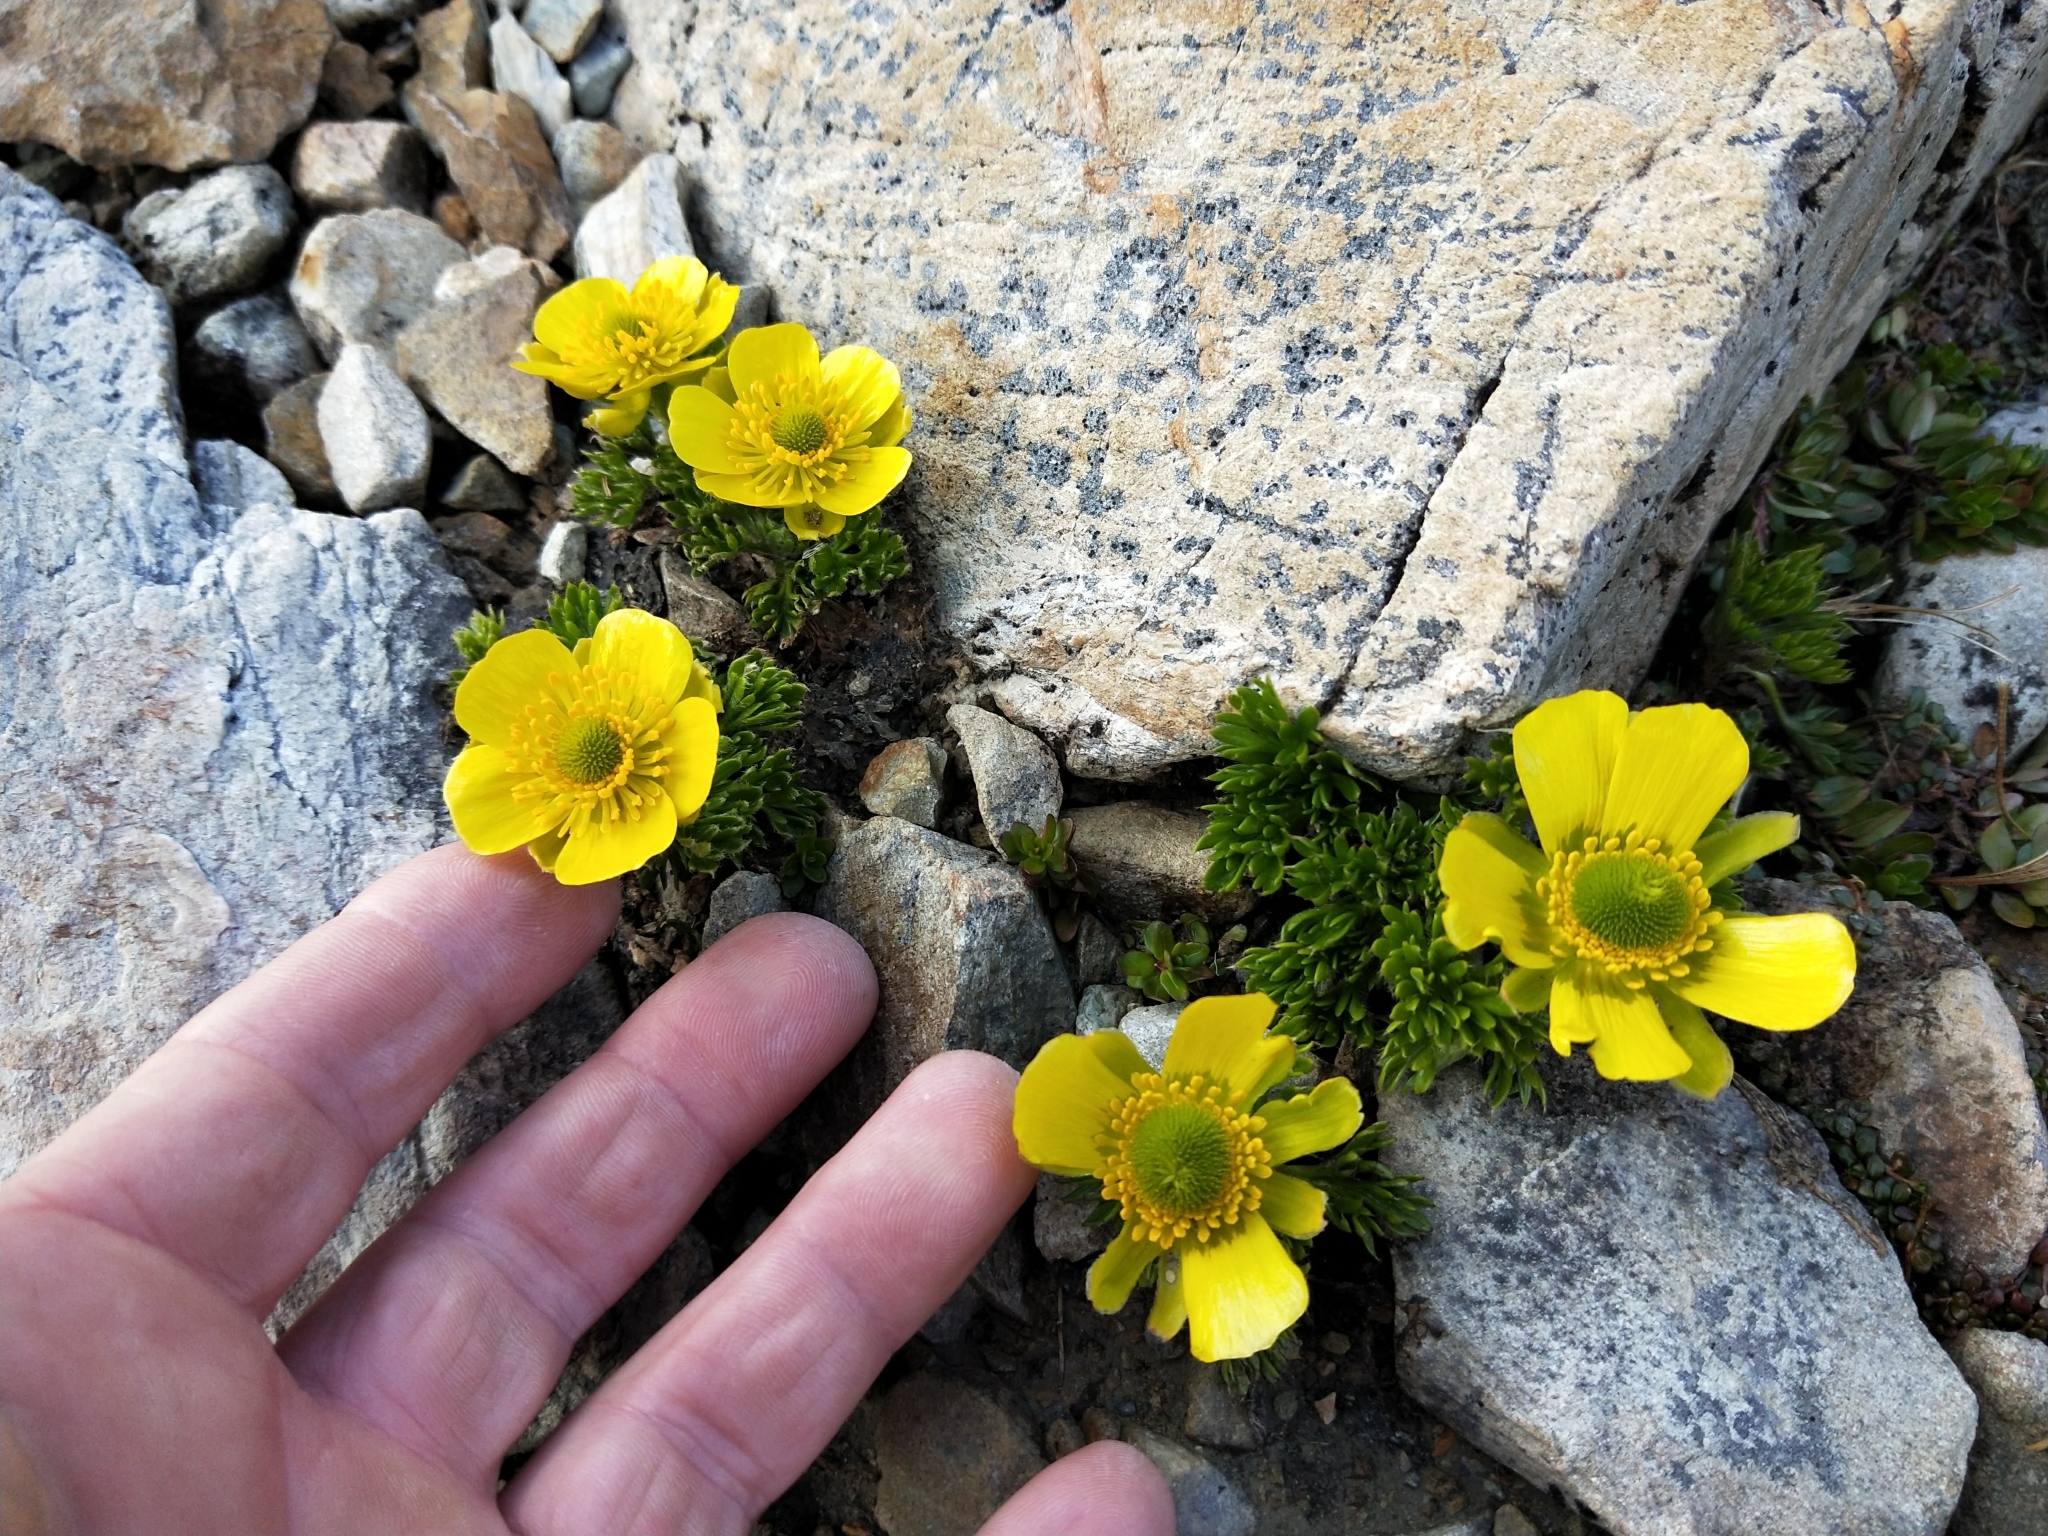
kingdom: Plantae
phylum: Tracheophyta
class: Magnoliopsida
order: Ranunculales
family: Ranunculaceae
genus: Ranunculus
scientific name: Ranunculus sericophyllus
